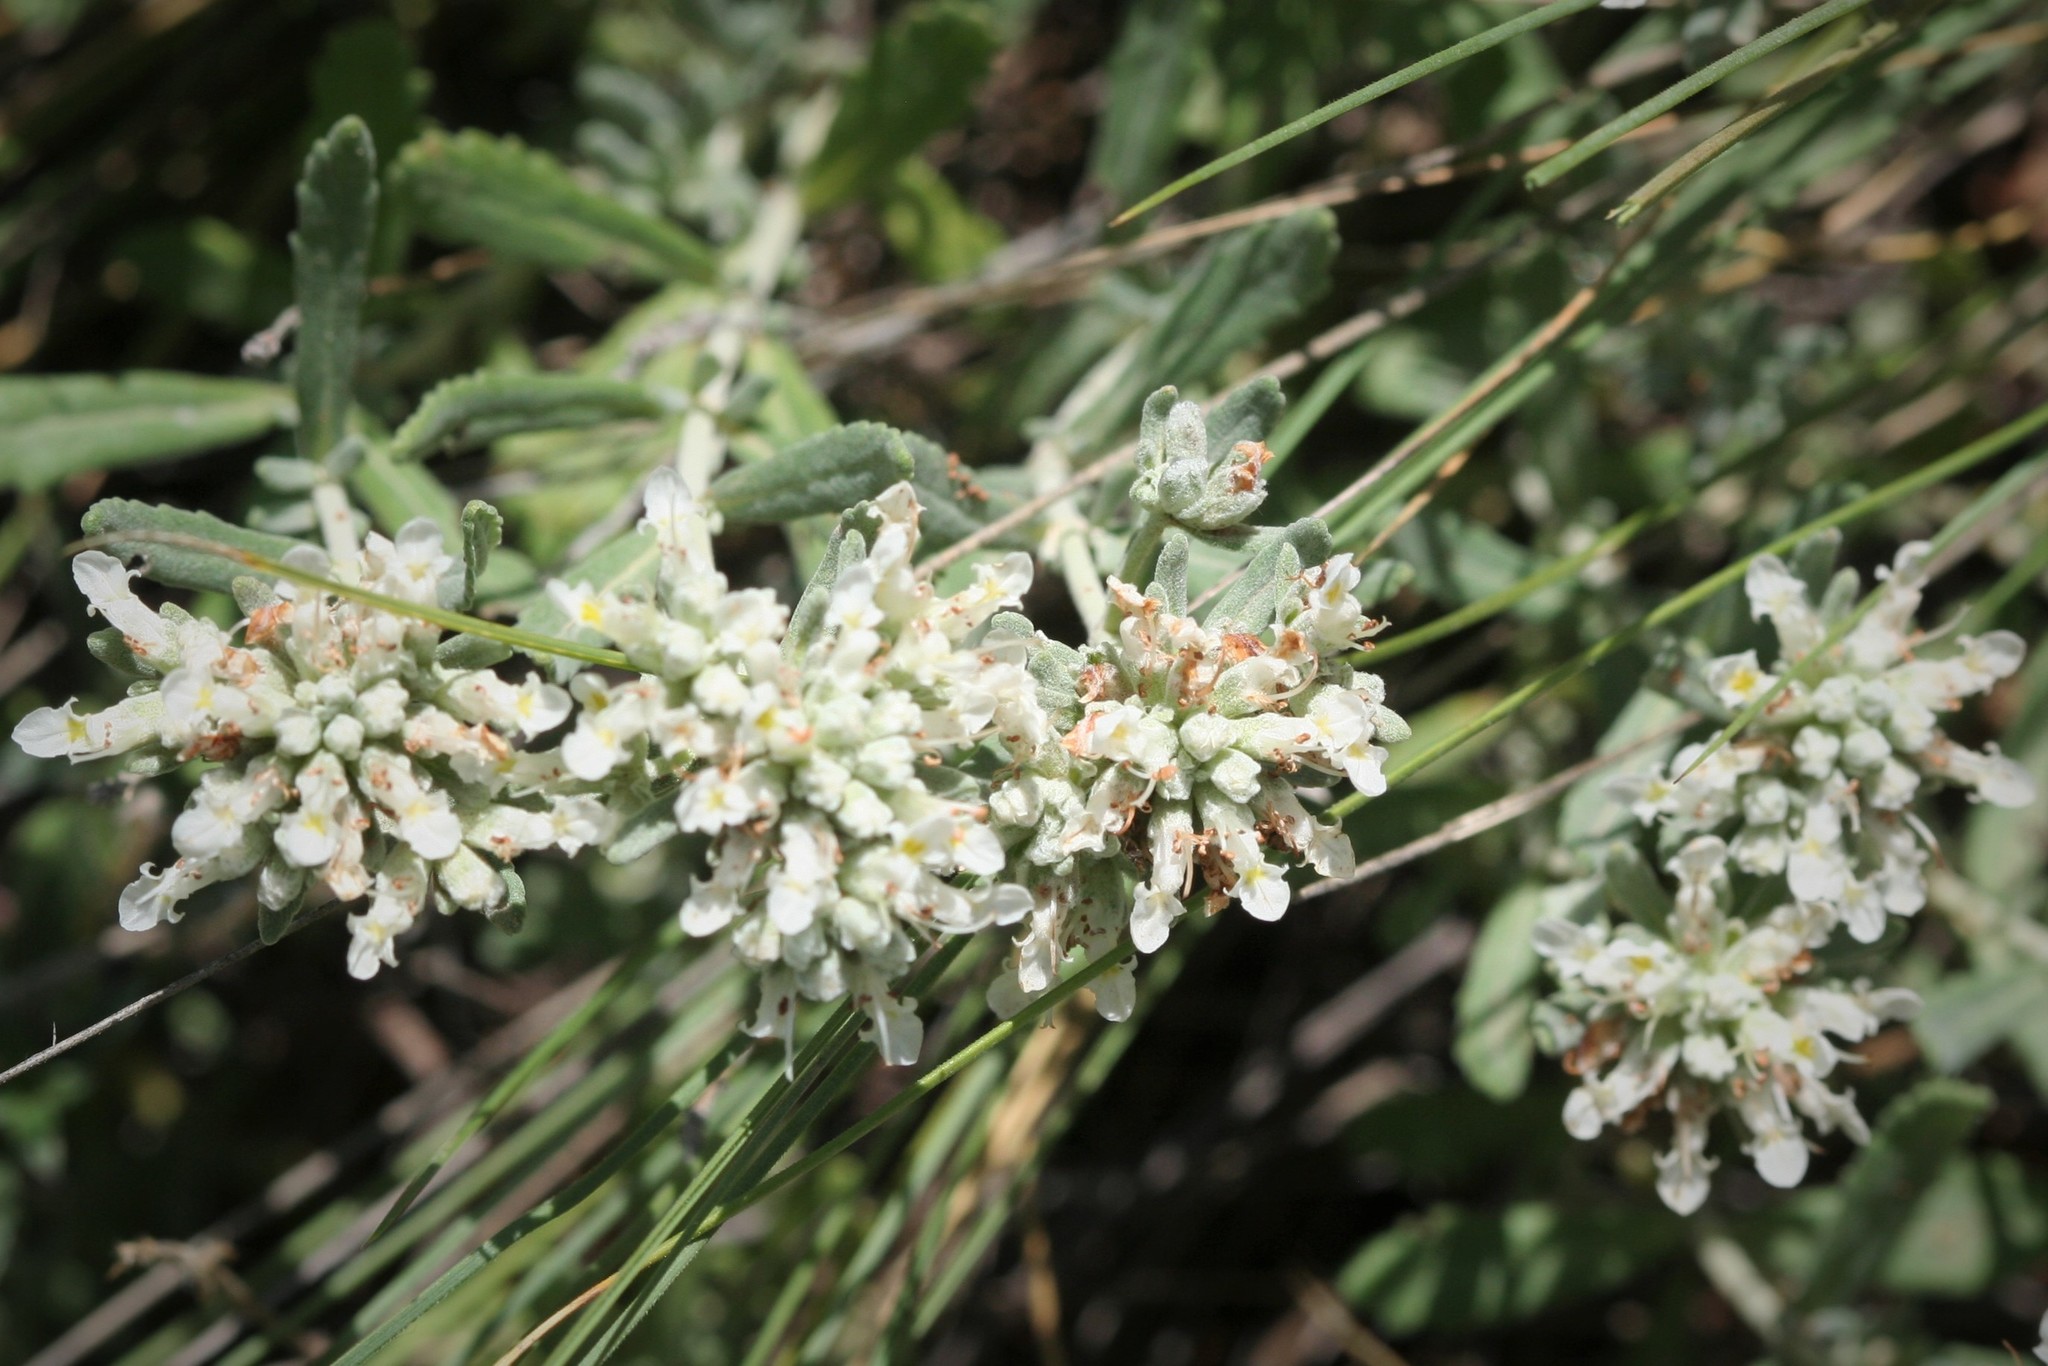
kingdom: Plantae
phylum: Tracheophyta
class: Magnoliopsida
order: Lamiales
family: Lamiaceae
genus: Teucrium
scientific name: Teucrium polium
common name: Poley
